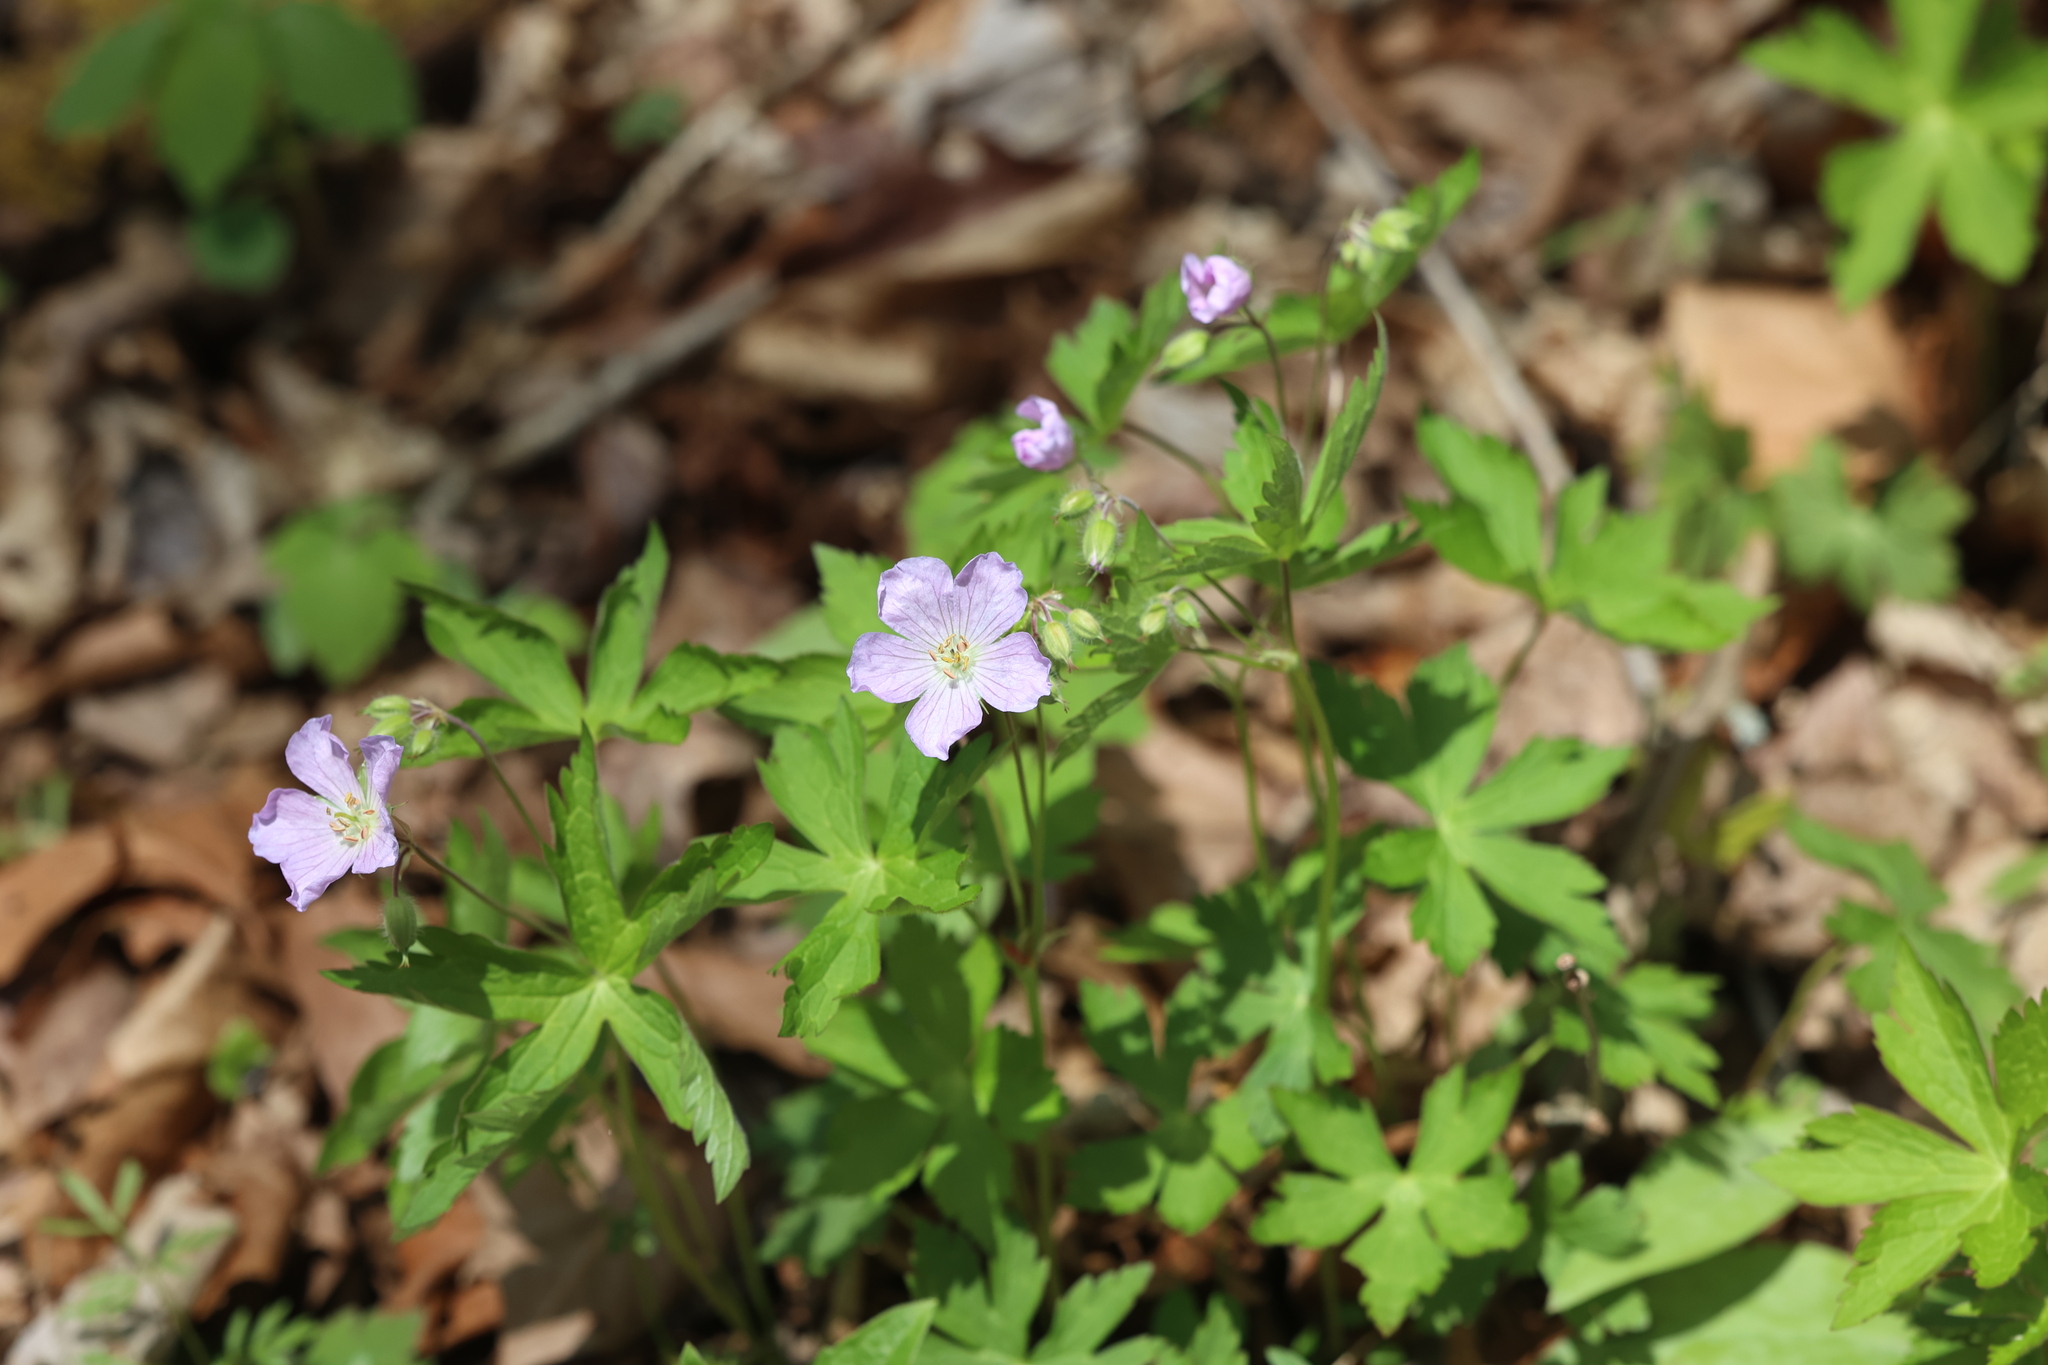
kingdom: Plantae
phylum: Tracheophyta
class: Magnoliopsida
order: Geraniales
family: Geraniaceae
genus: Geranium
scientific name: Geranium maculatum
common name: Spotted geranium
